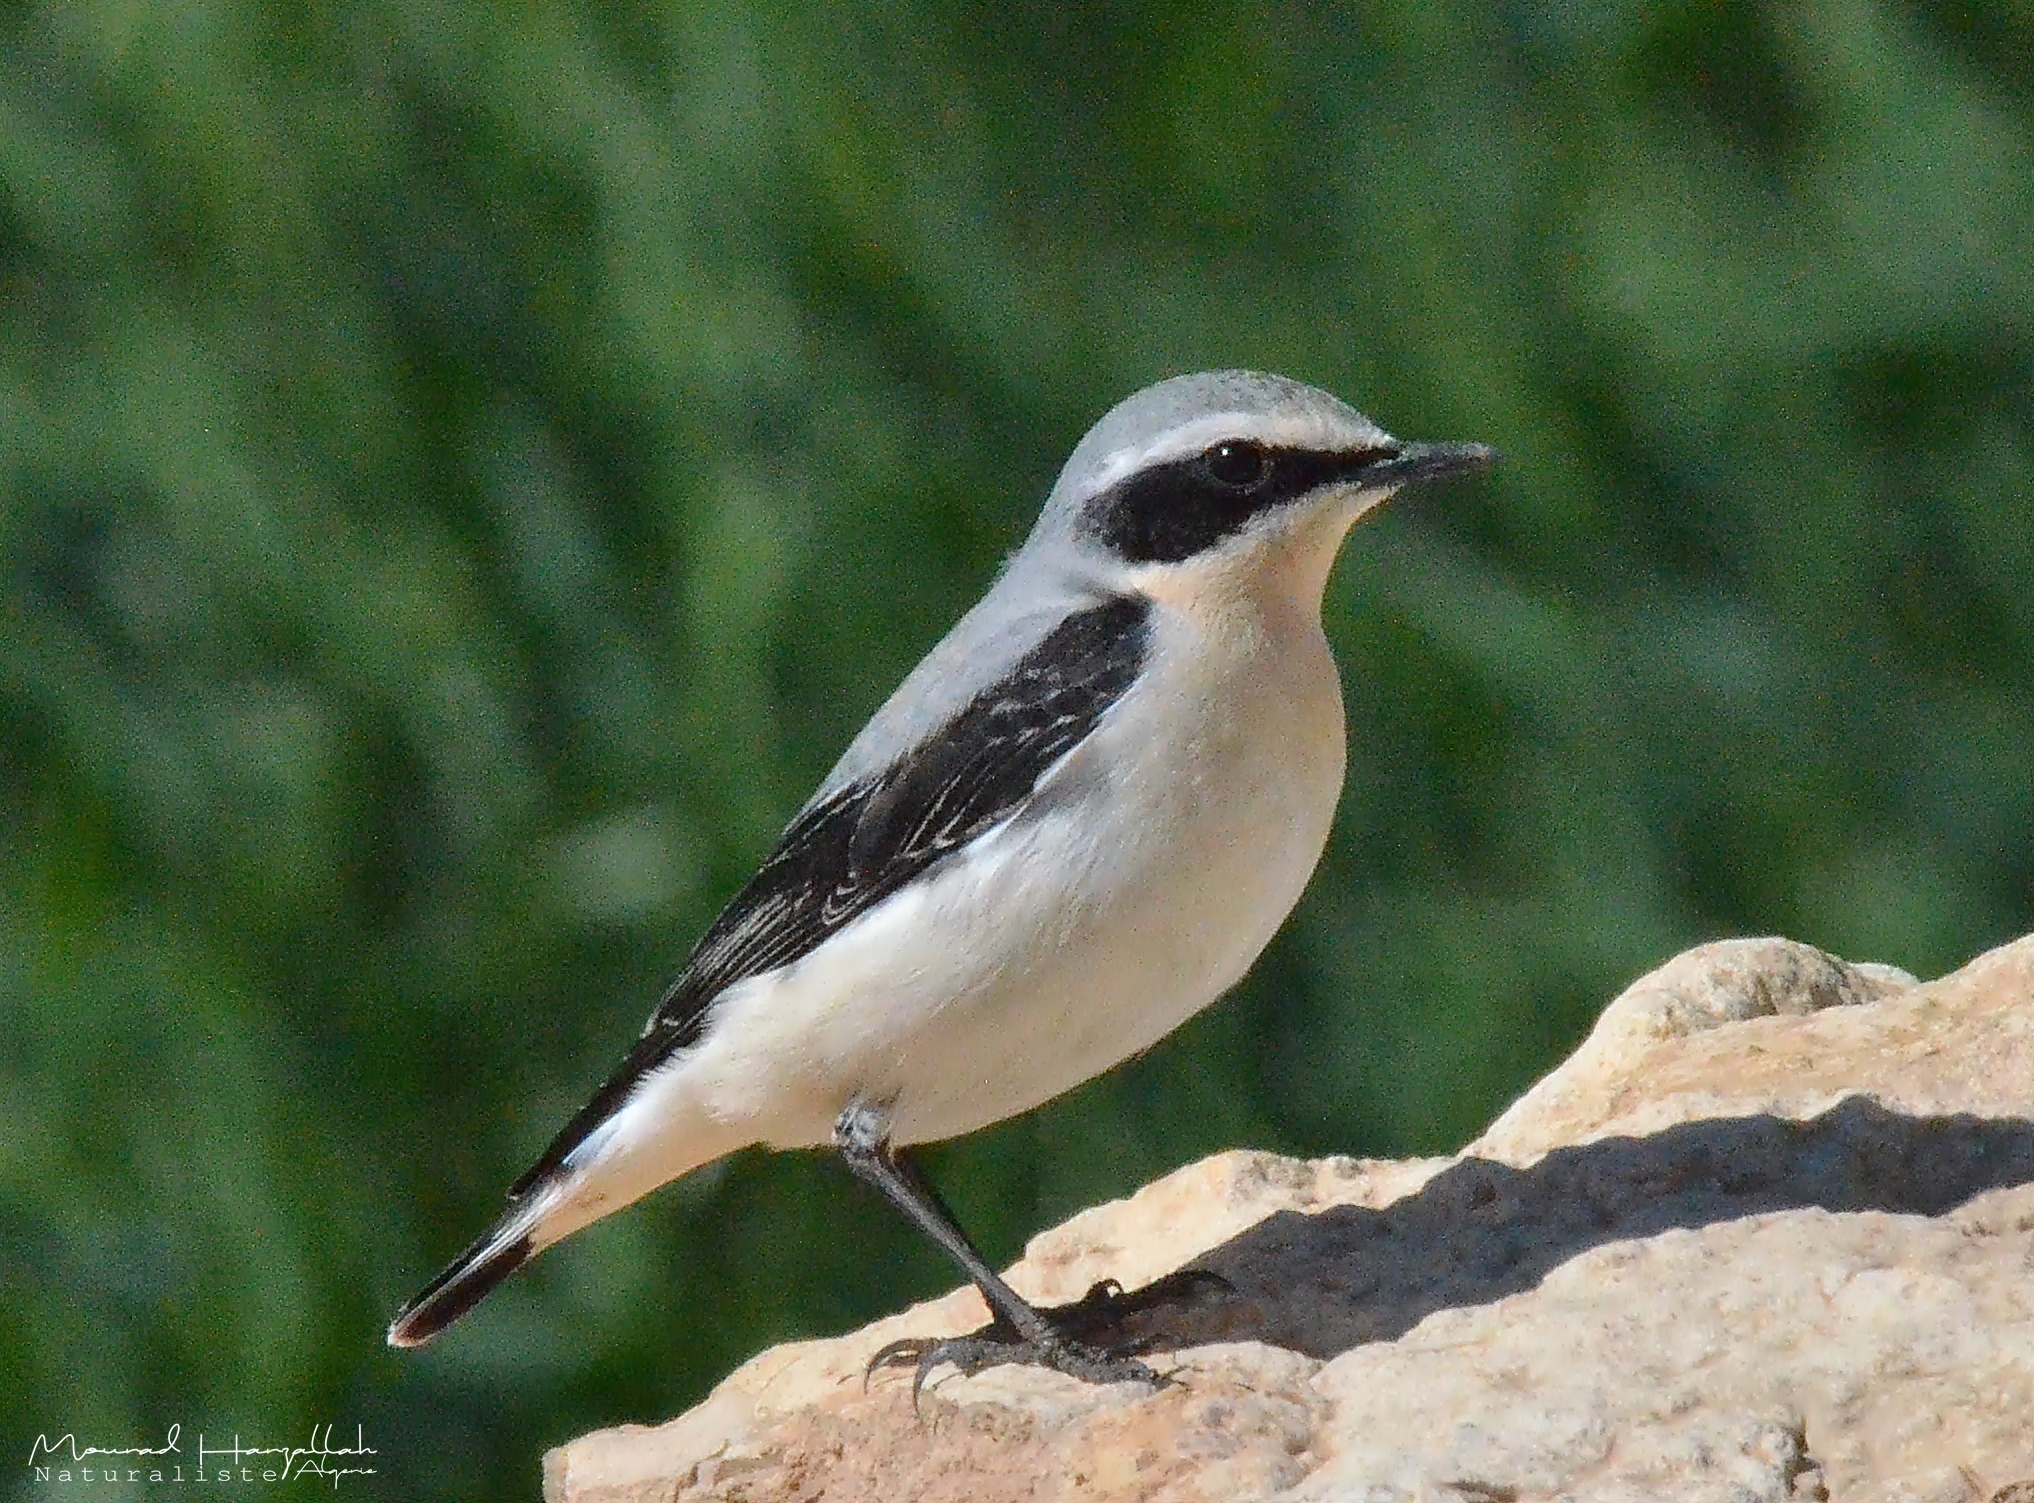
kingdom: Animalia
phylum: Chordata
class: Aves
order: Passeriformes
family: Muscicapidae
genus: Oenanthe
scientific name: Oenanthe oenanthe
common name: Northern wheatear
